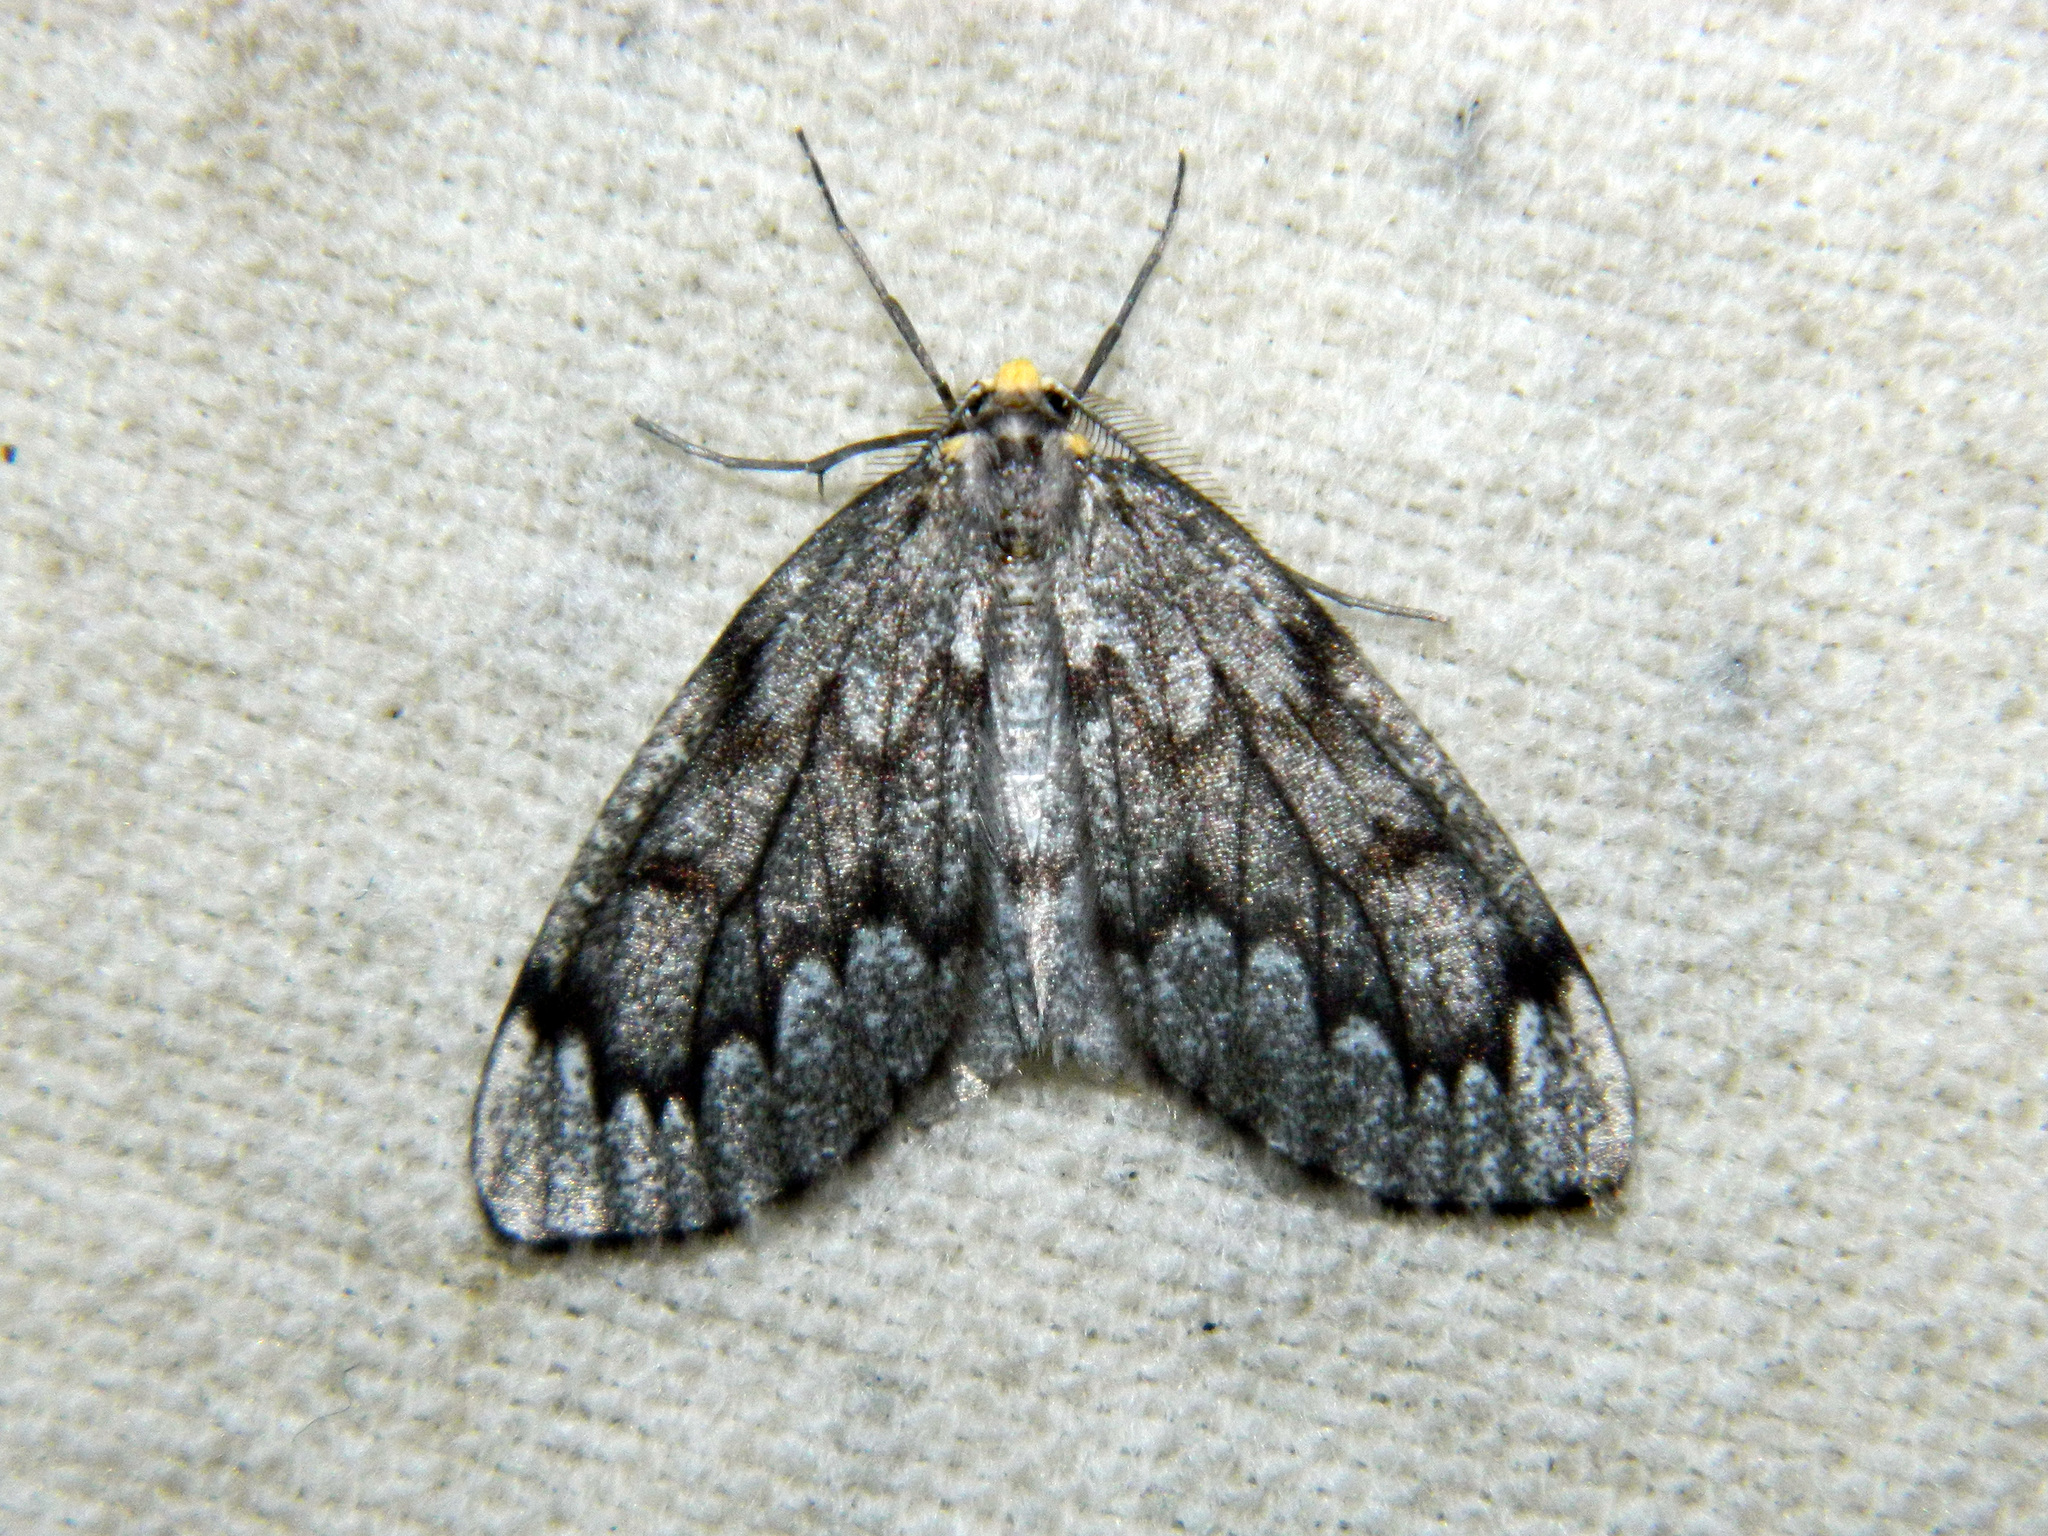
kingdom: Animalia
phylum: Arthropoda
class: Insecta
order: Lepidoptera
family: Geometridae
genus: Nepytia
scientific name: Nepytia canosaria
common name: False hemlock looper
